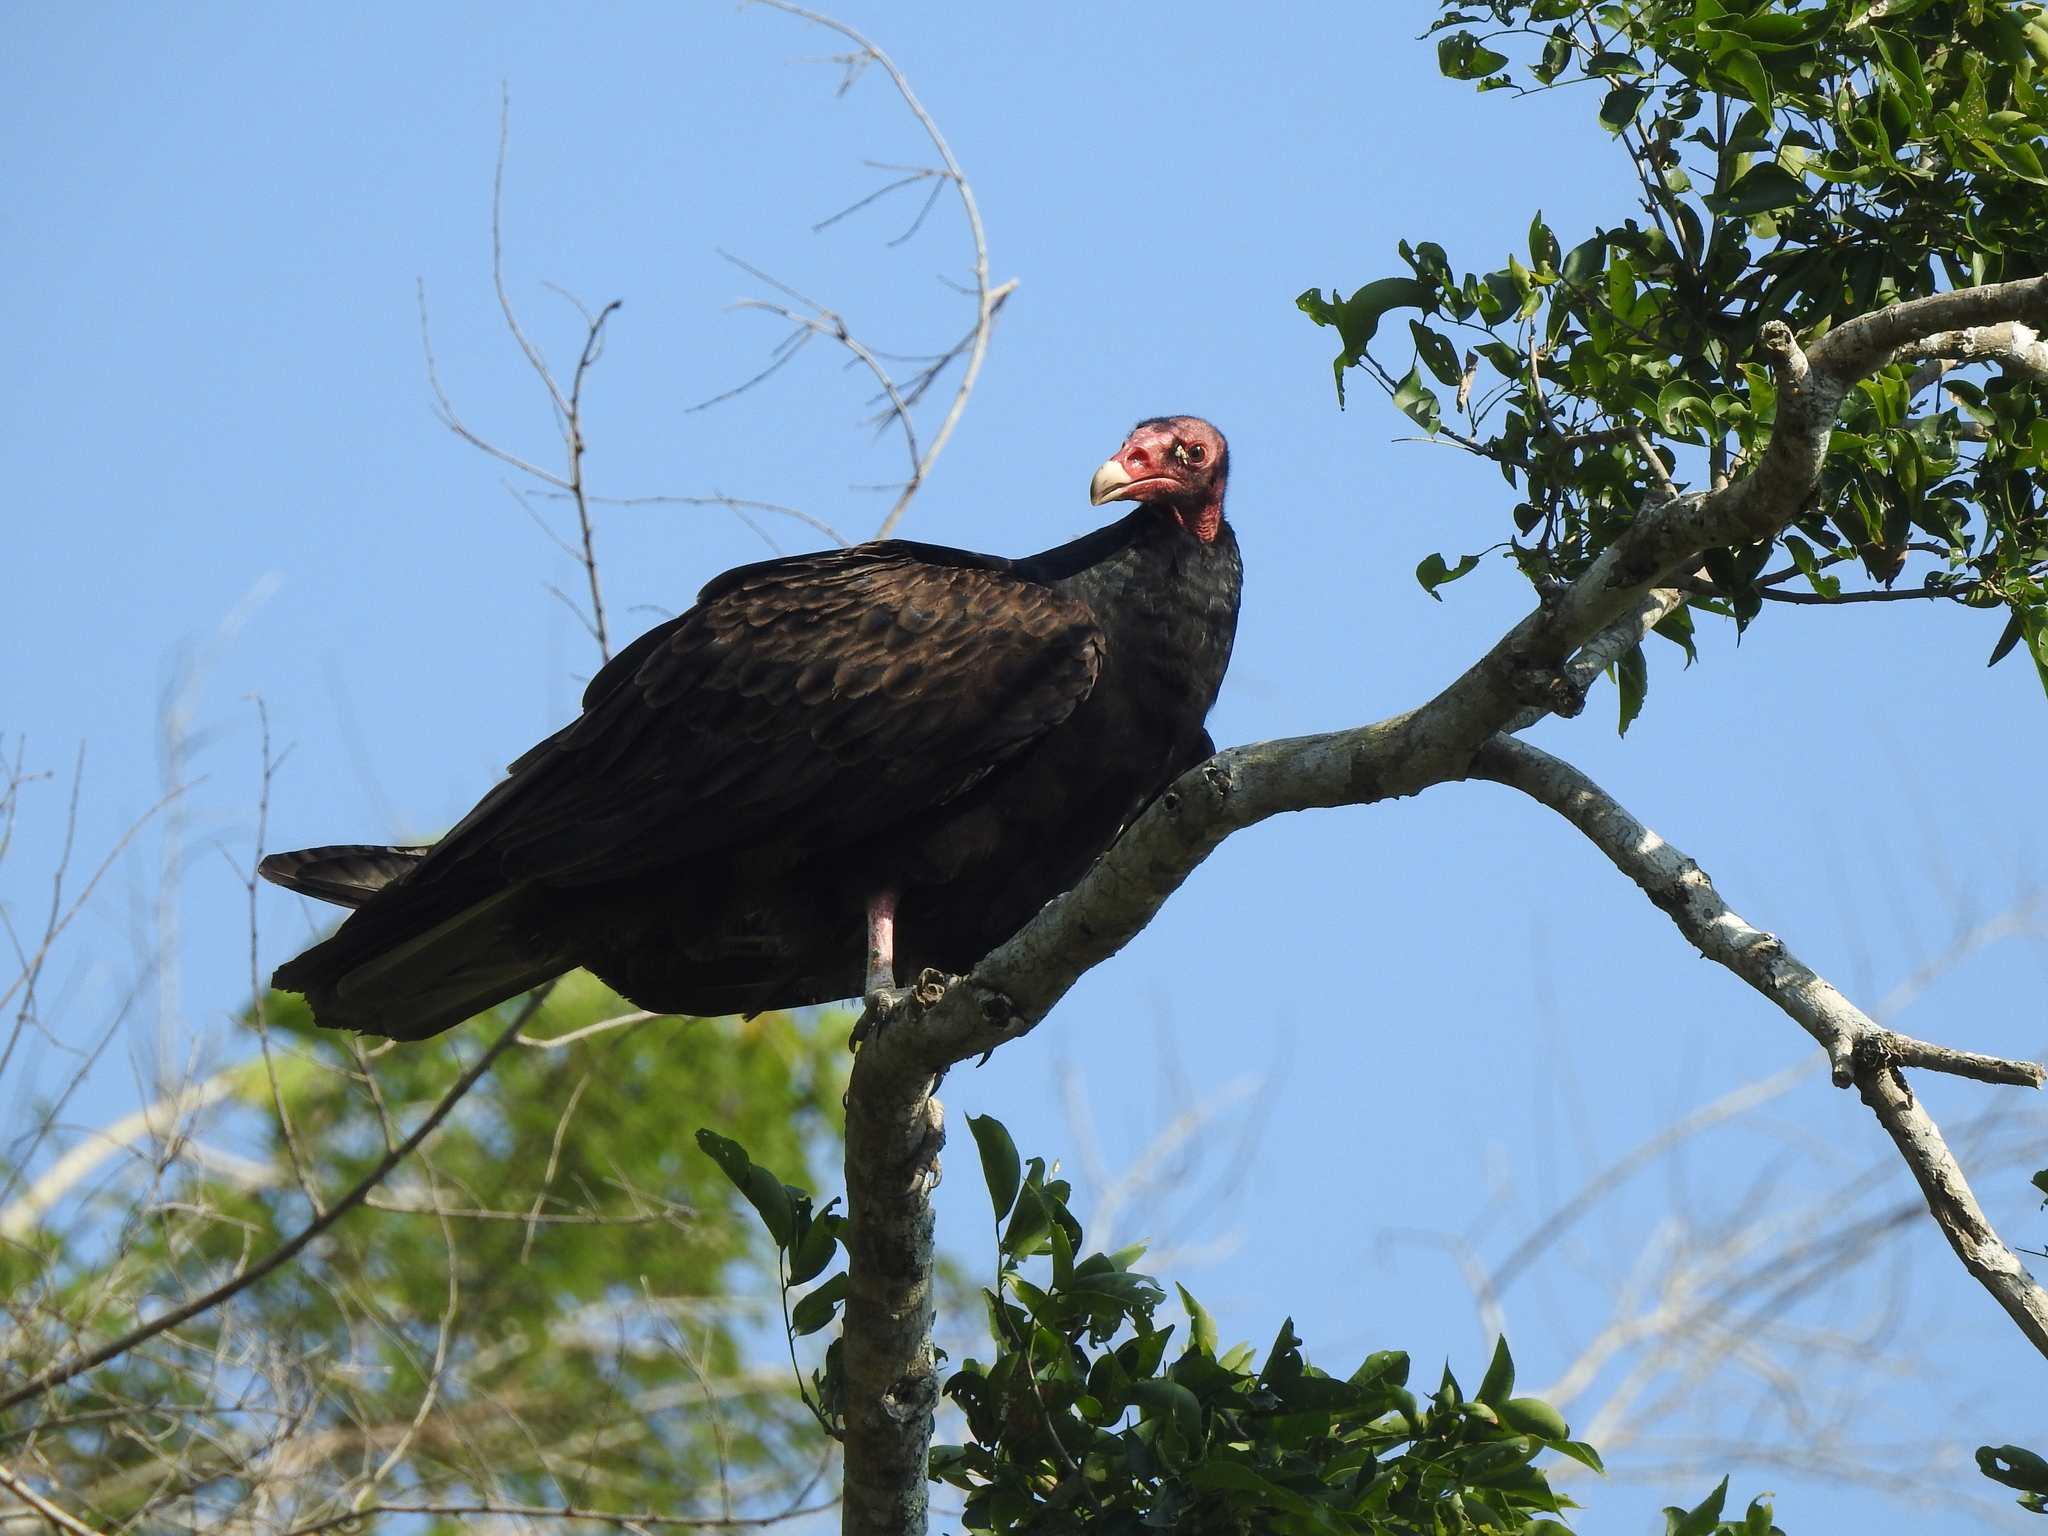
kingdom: Animalia
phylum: Chordata
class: Aves
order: Accipitriformes
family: Cathartidae
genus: Cathartes
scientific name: Cathartes aura
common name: Turkey vulture
